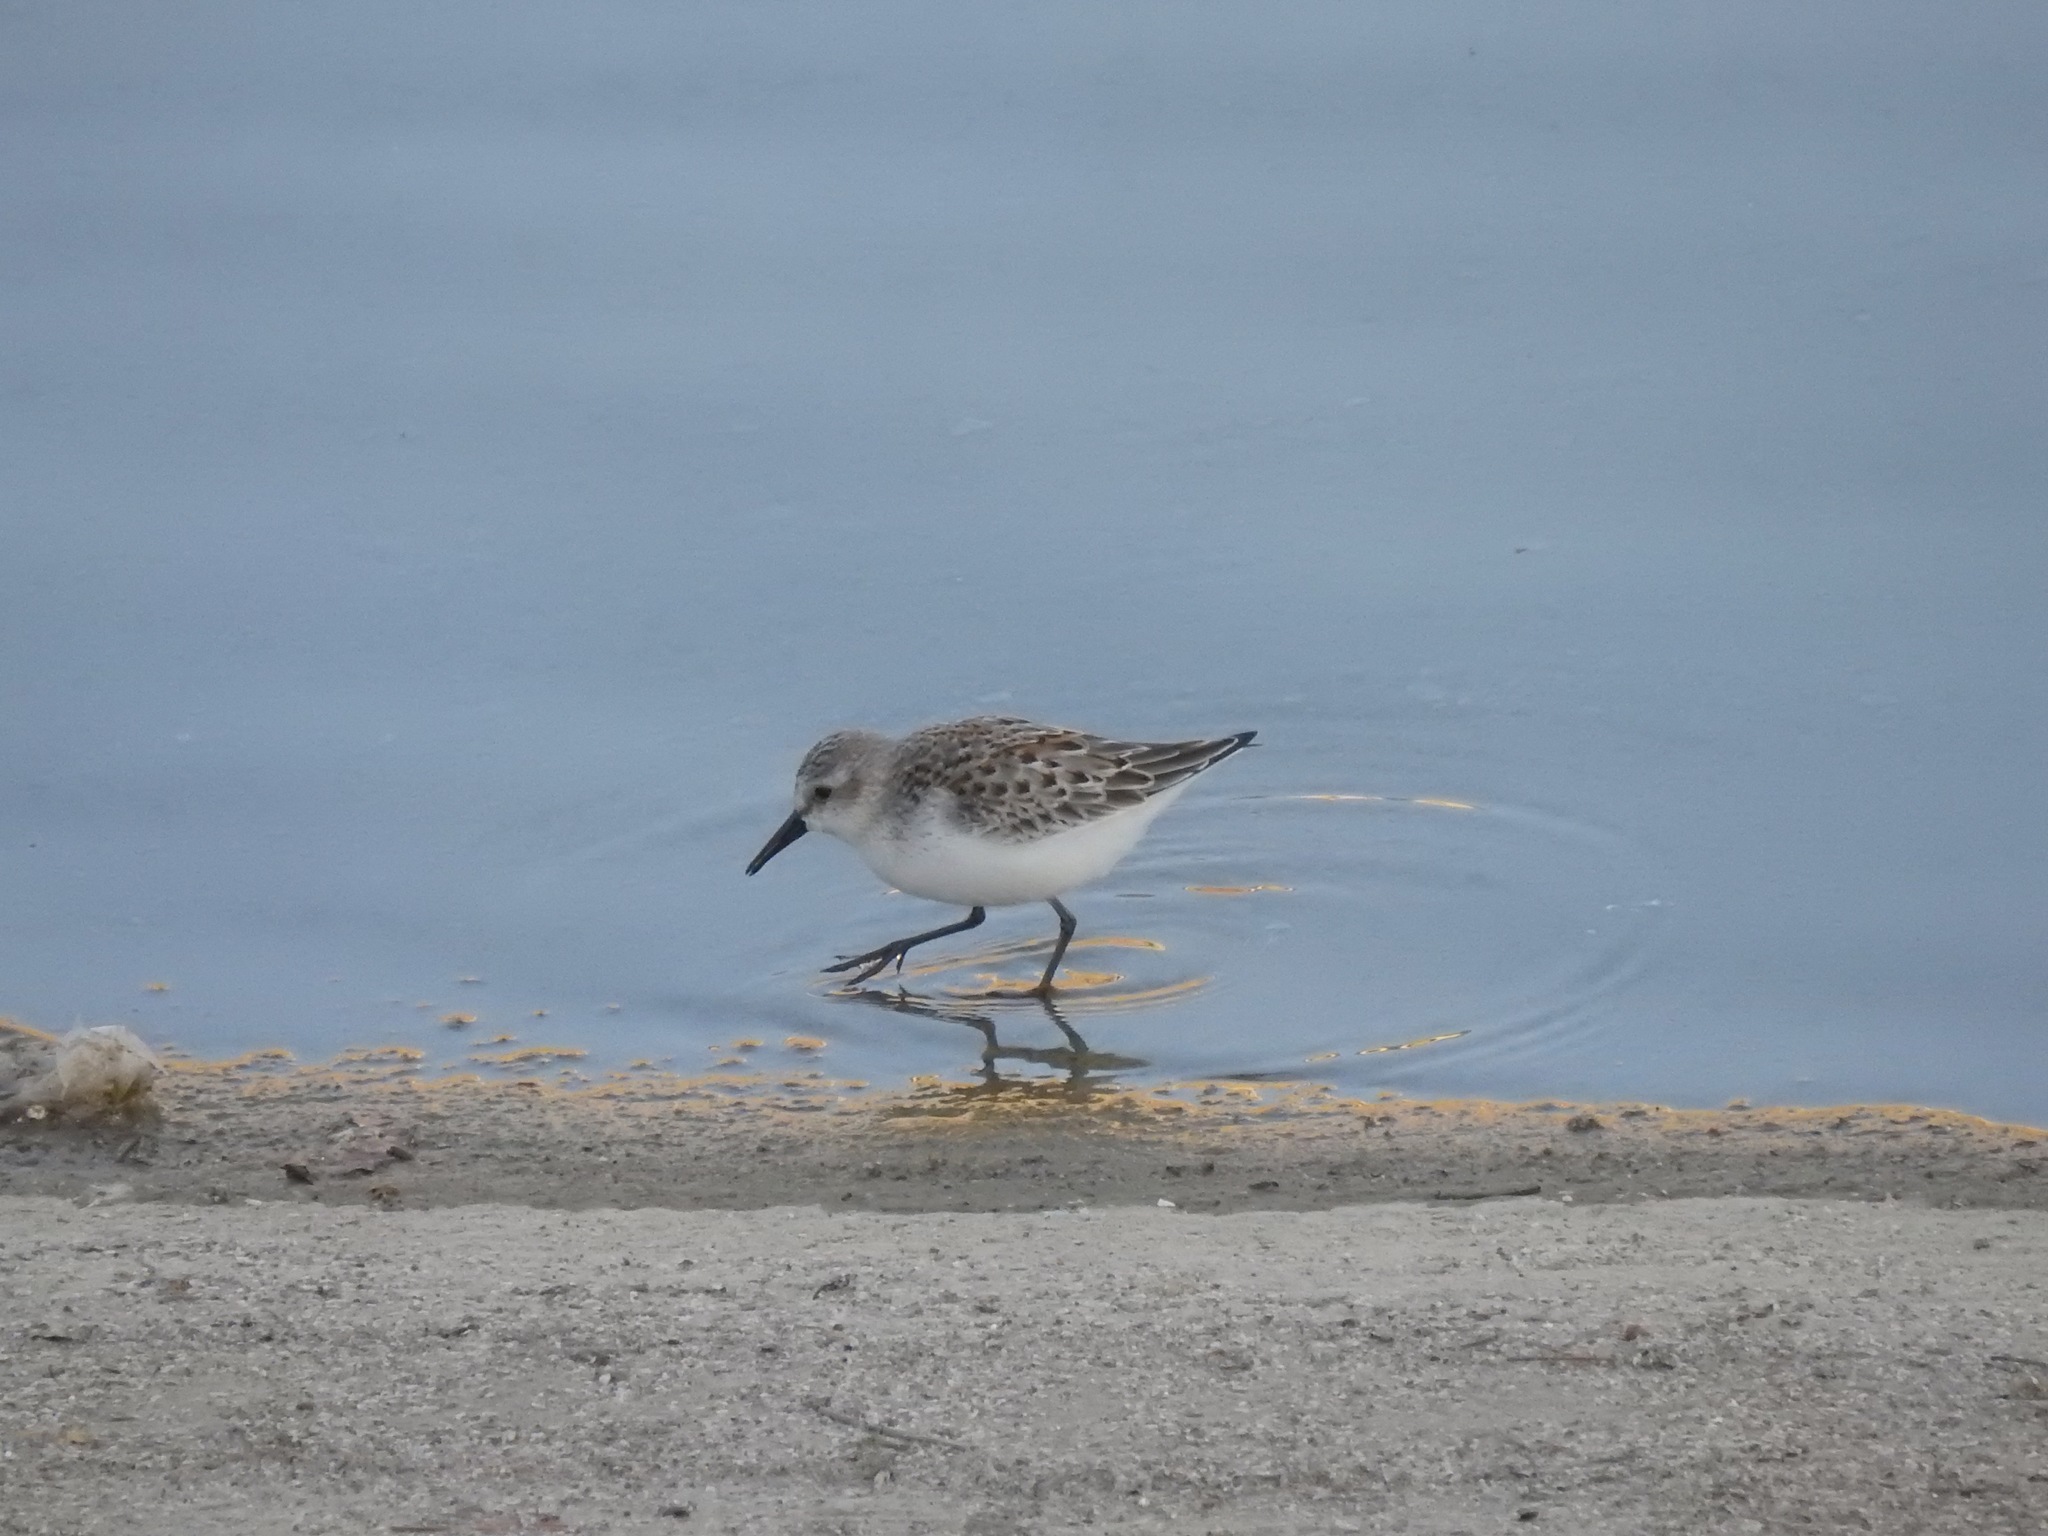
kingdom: Animalia
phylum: Chordata
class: Aves
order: Charadriiformes
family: Scolopacidae
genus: Calidris
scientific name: Calidris mauri
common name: Western sandpiper
